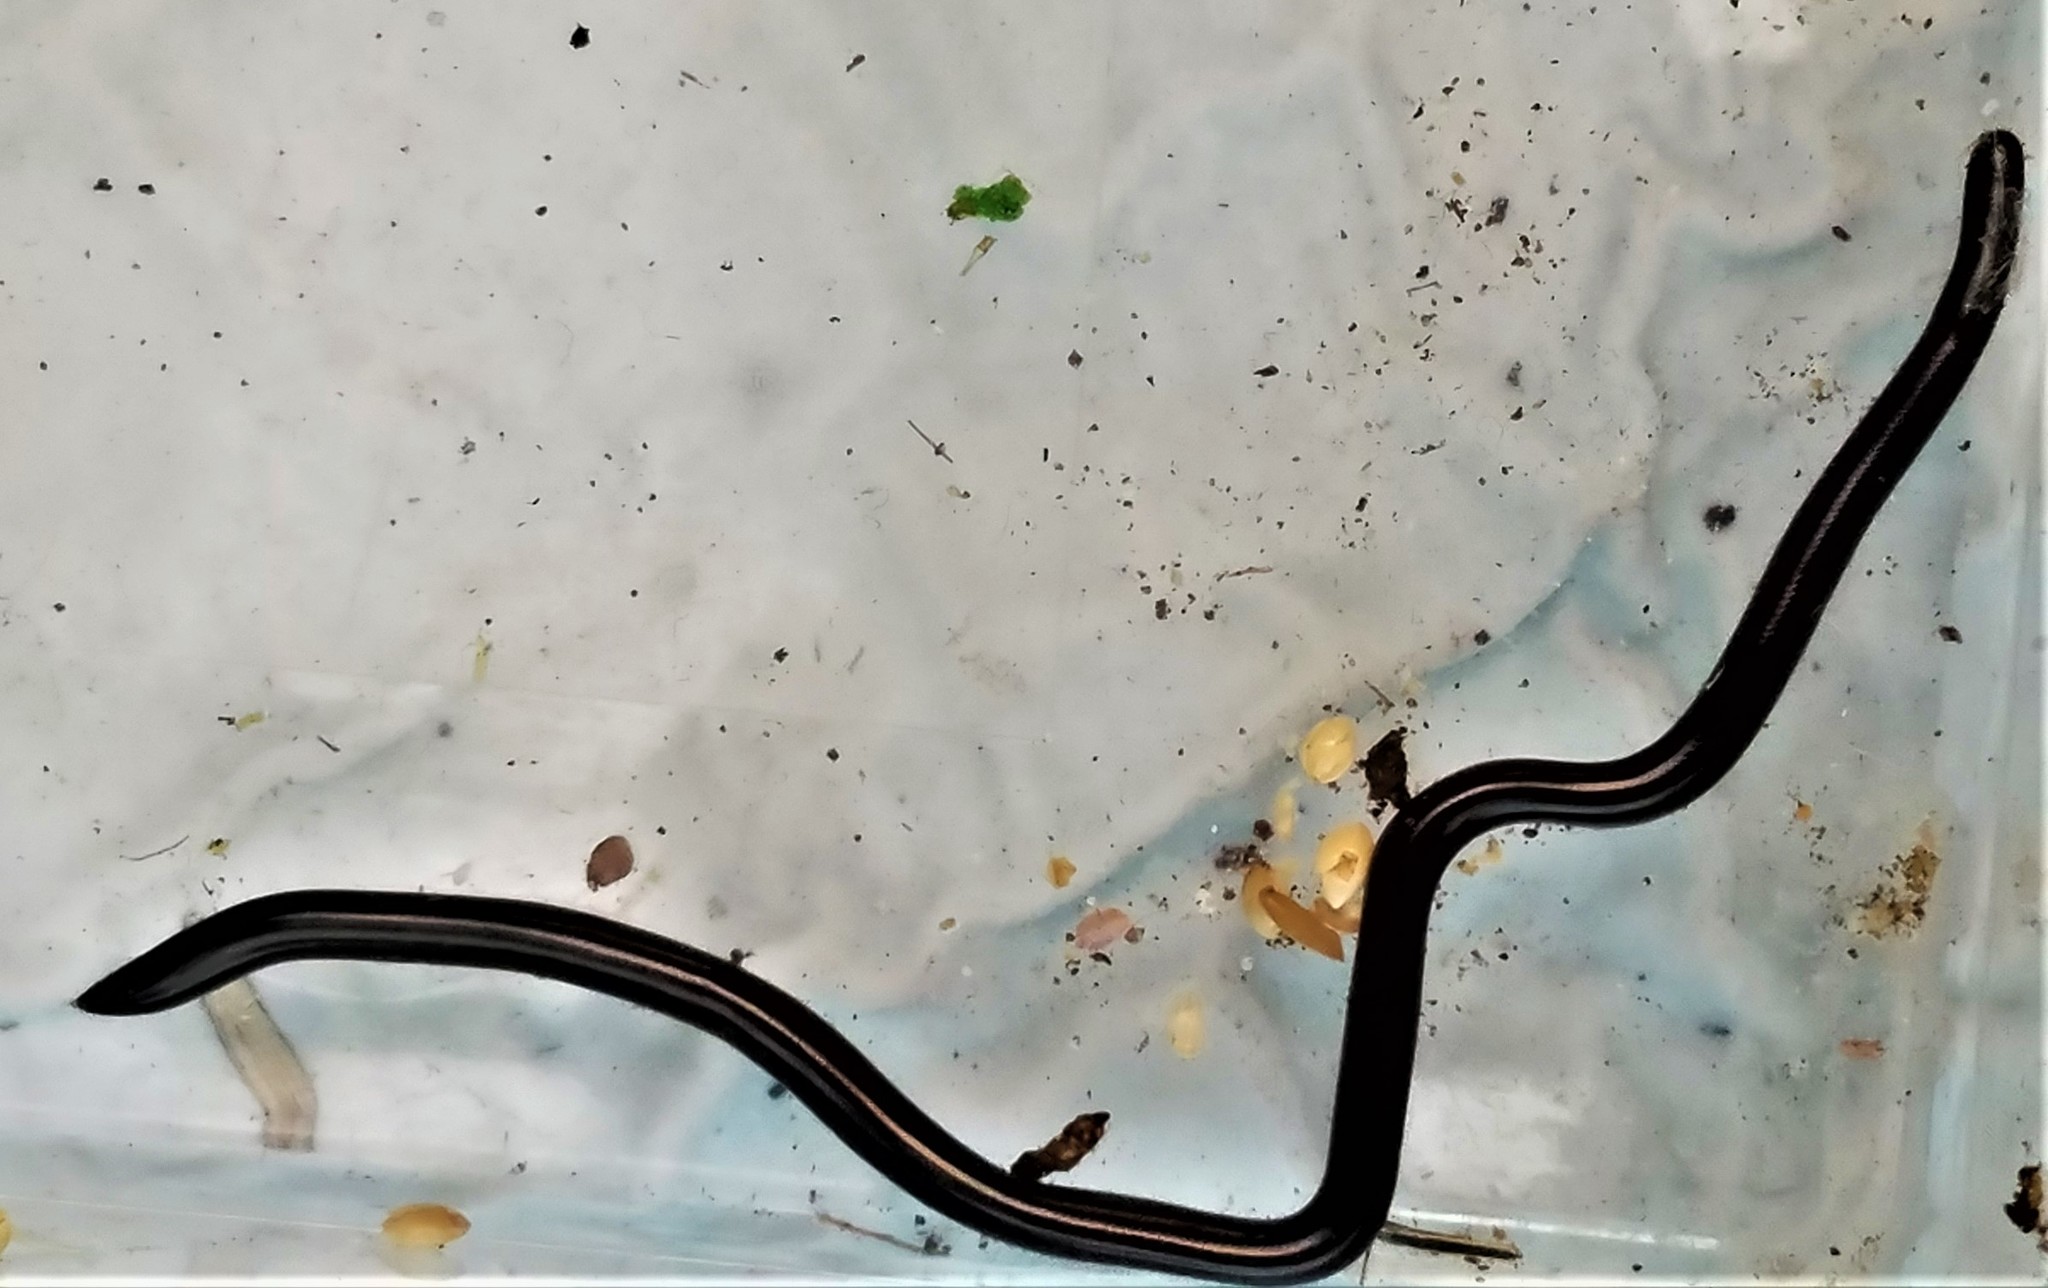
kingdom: Animalia
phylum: Chordata
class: Squamata
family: Typhlopidae
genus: Indotyphlops
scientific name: Indotyphlops braminus
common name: Brahminy blindsnake
